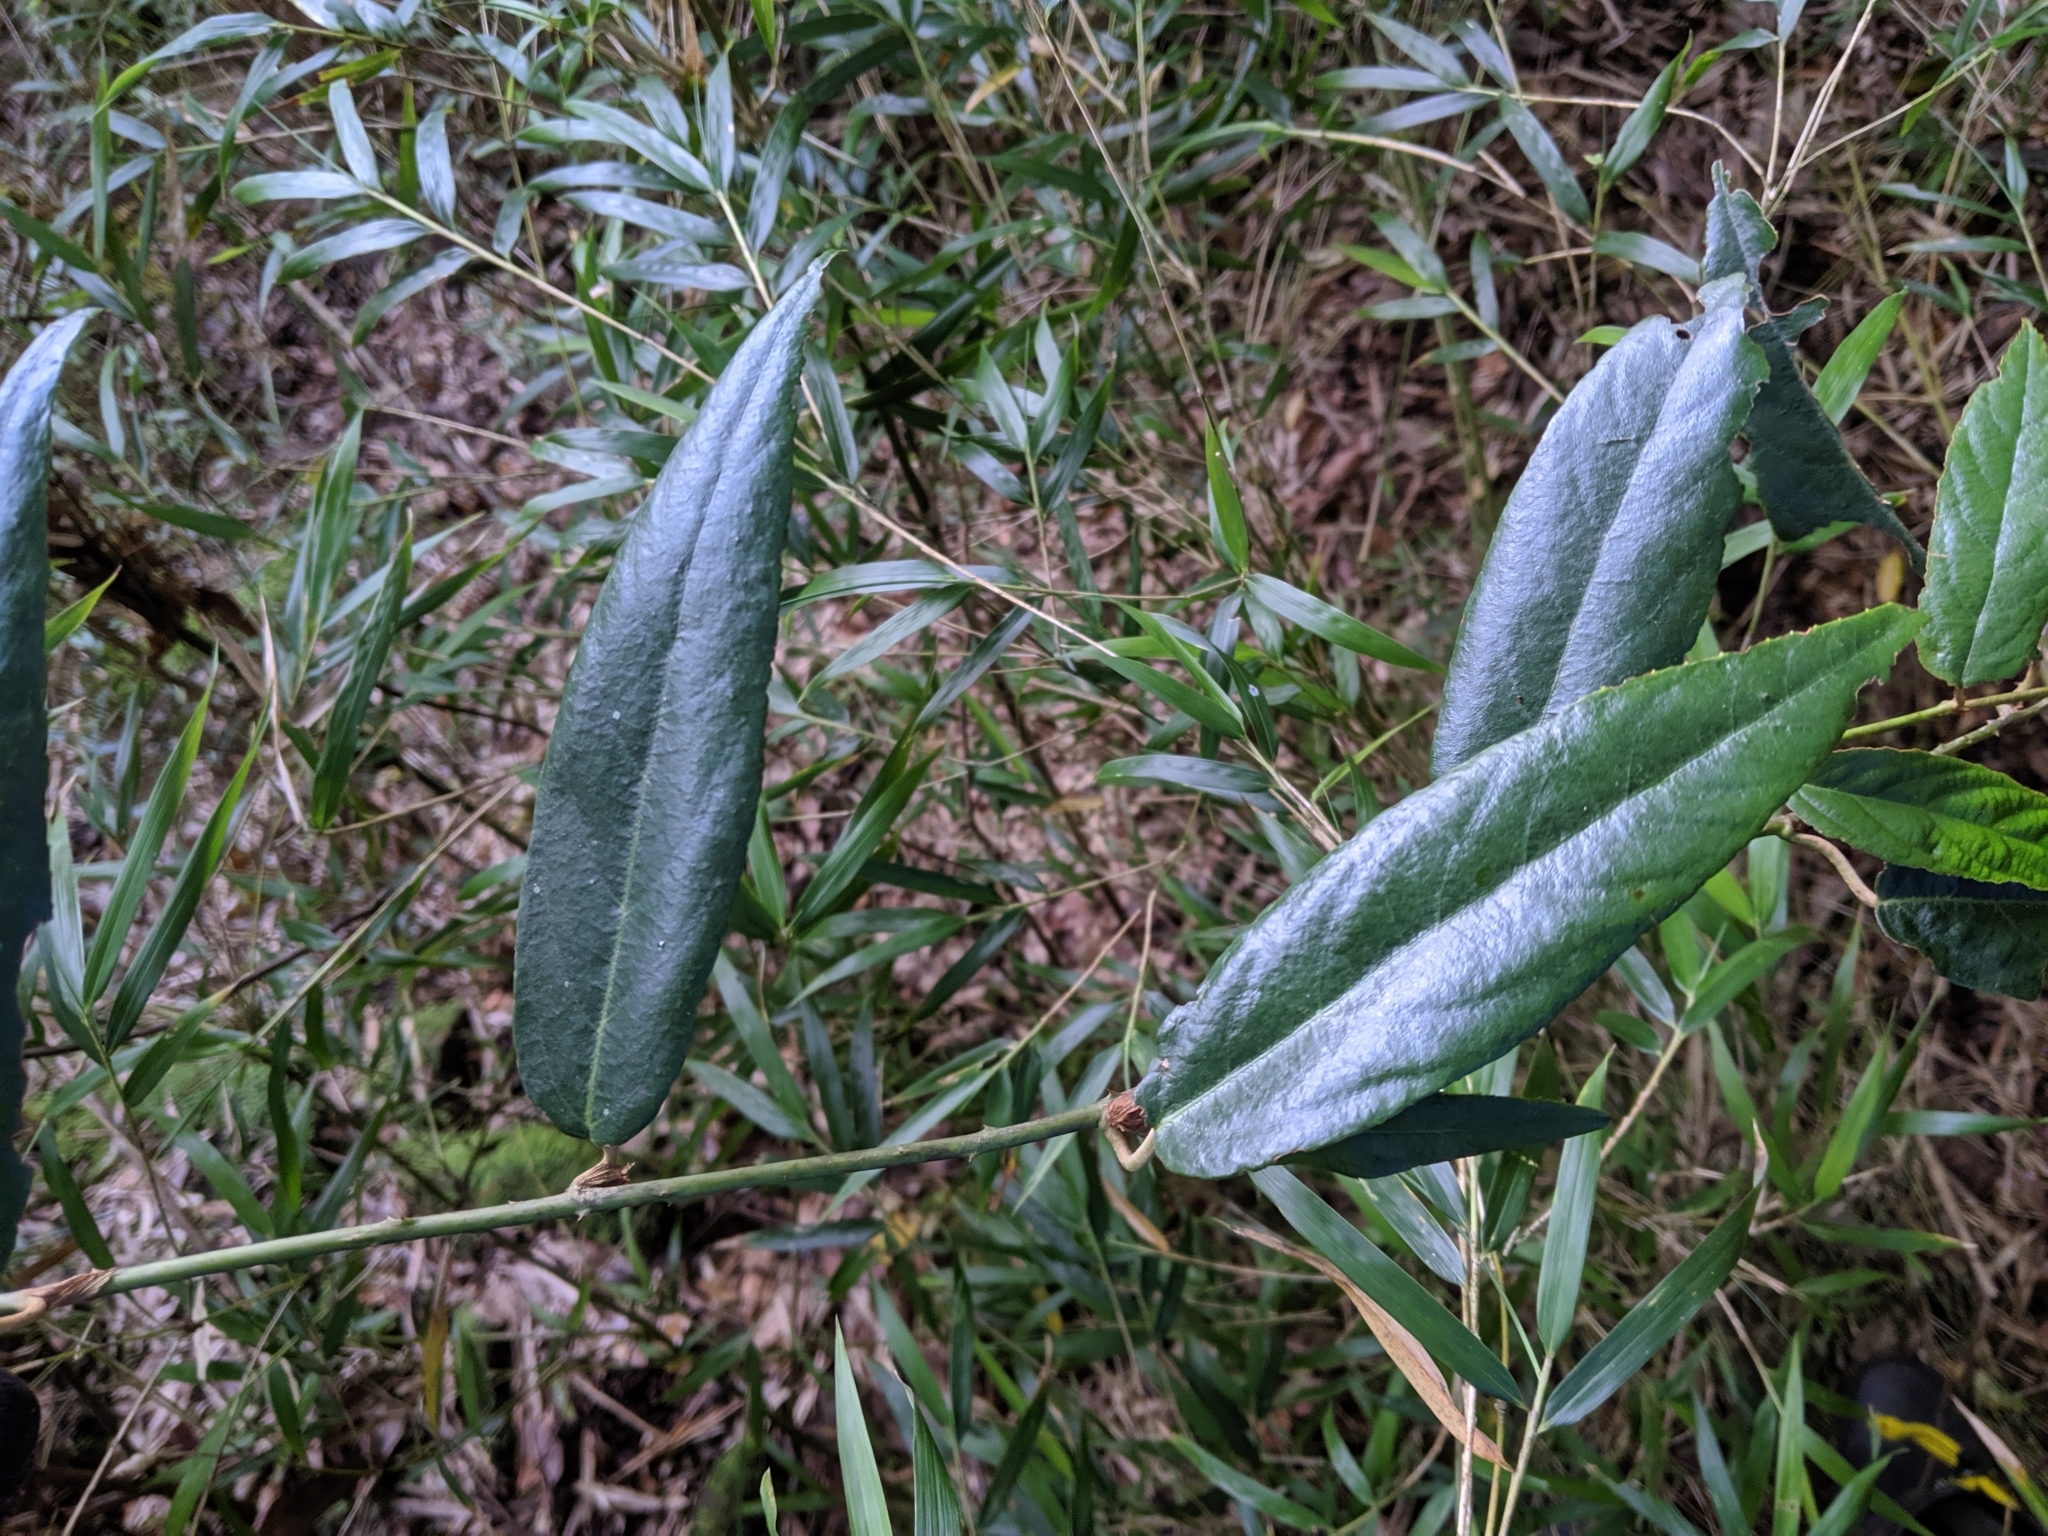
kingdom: Plantae
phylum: Tracheophyta
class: Magnoliopsida
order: Rosales
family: Rosaceae
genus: Rubus
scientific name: Rubus liui
